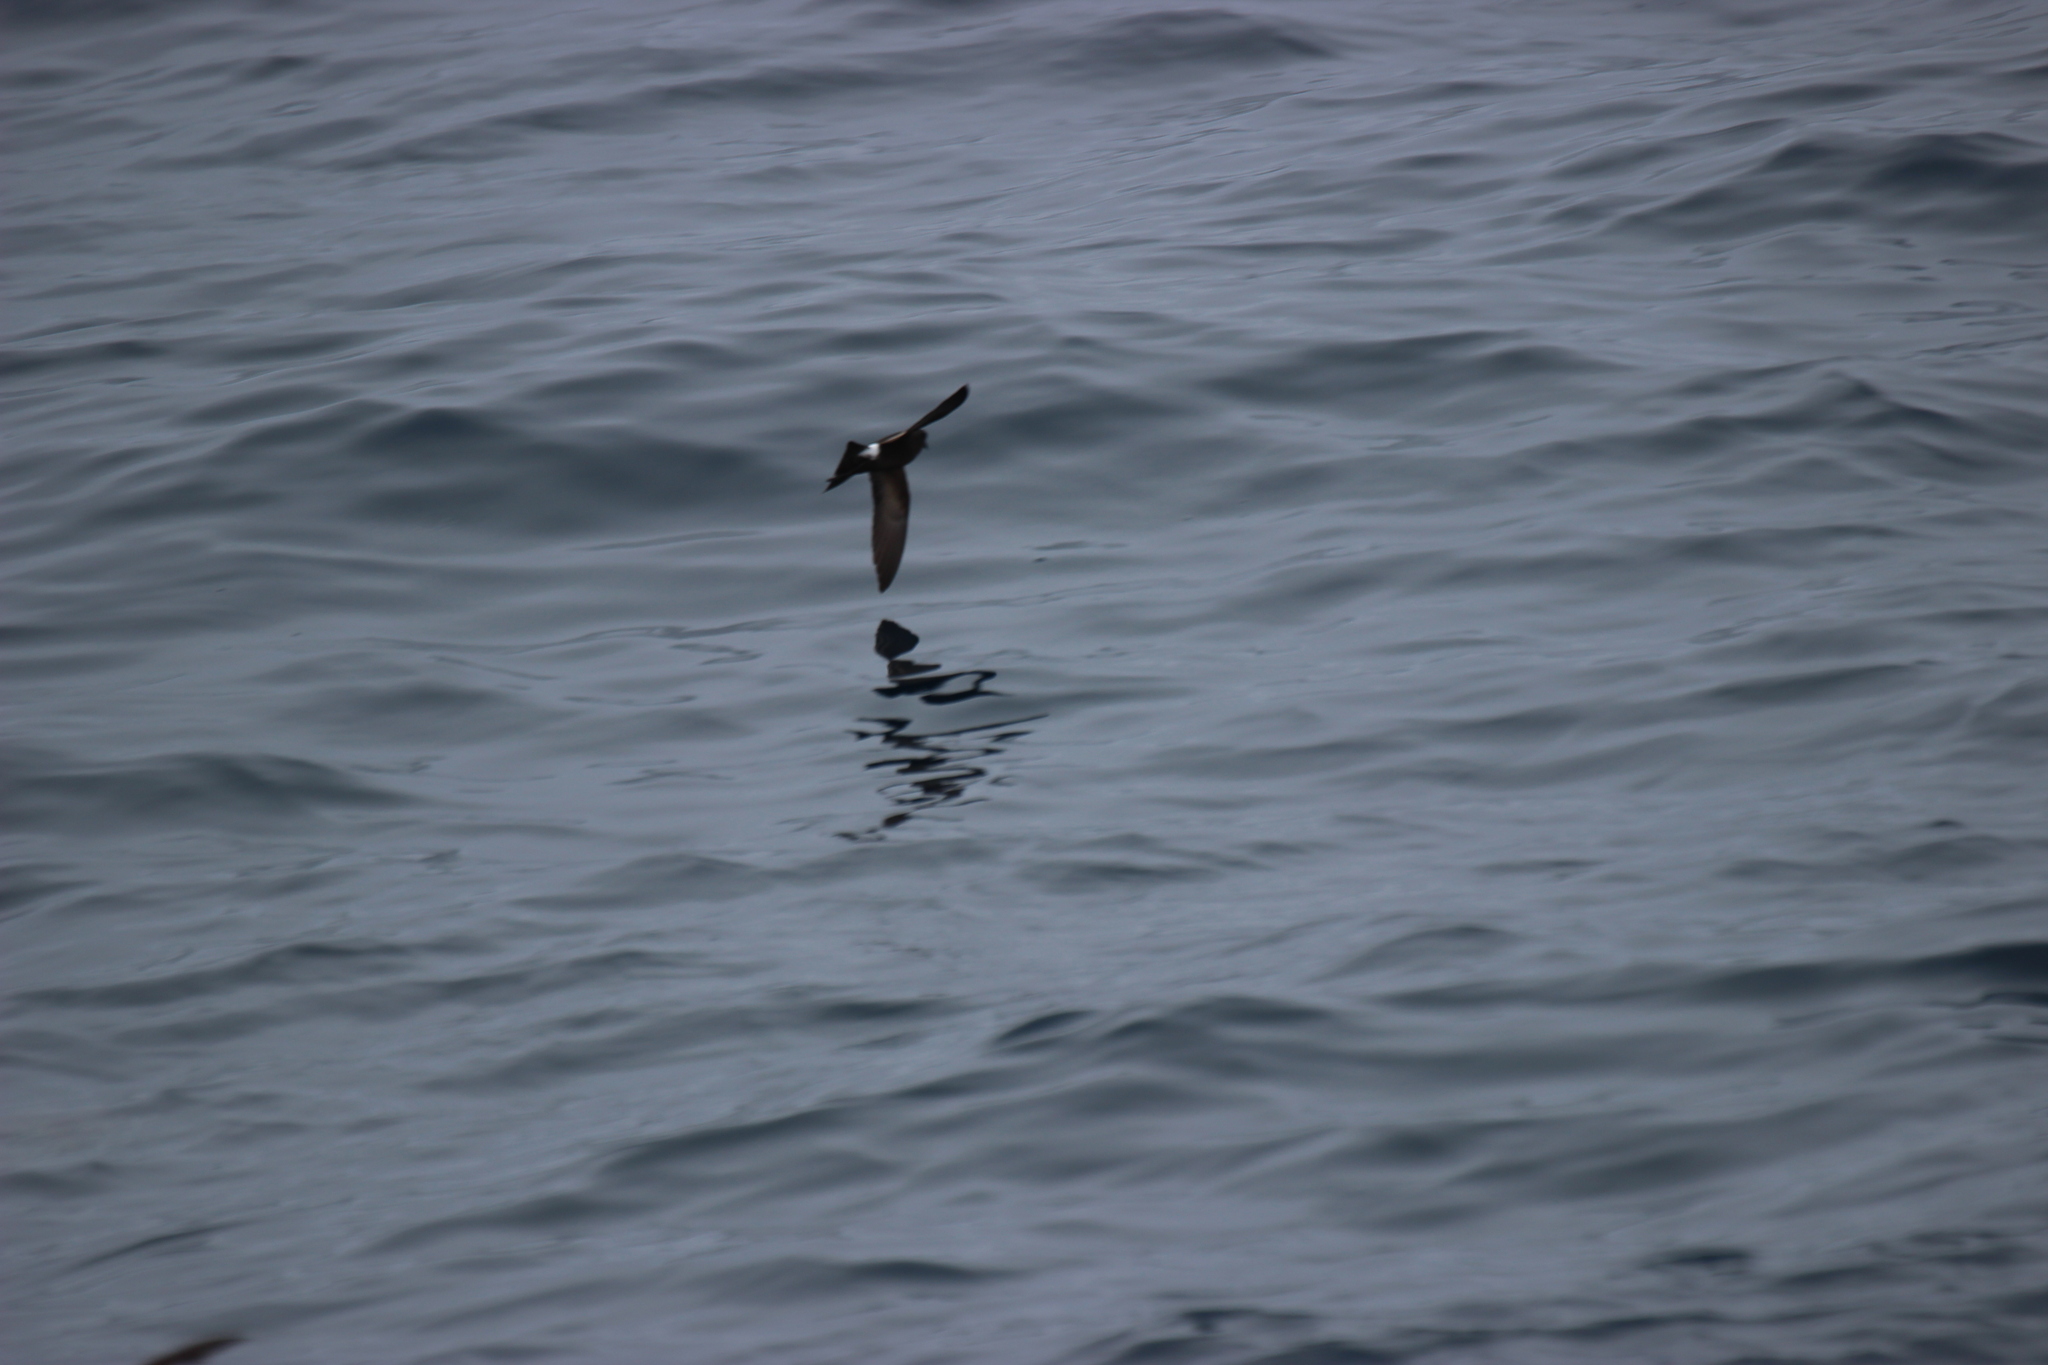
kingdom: Animalia
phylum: Chordata
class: Aves
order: Procellariiformes
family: Hydrobatidae
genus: Oceanites
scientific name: Oceanites oceanicus
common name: Wilson's storm petrel
